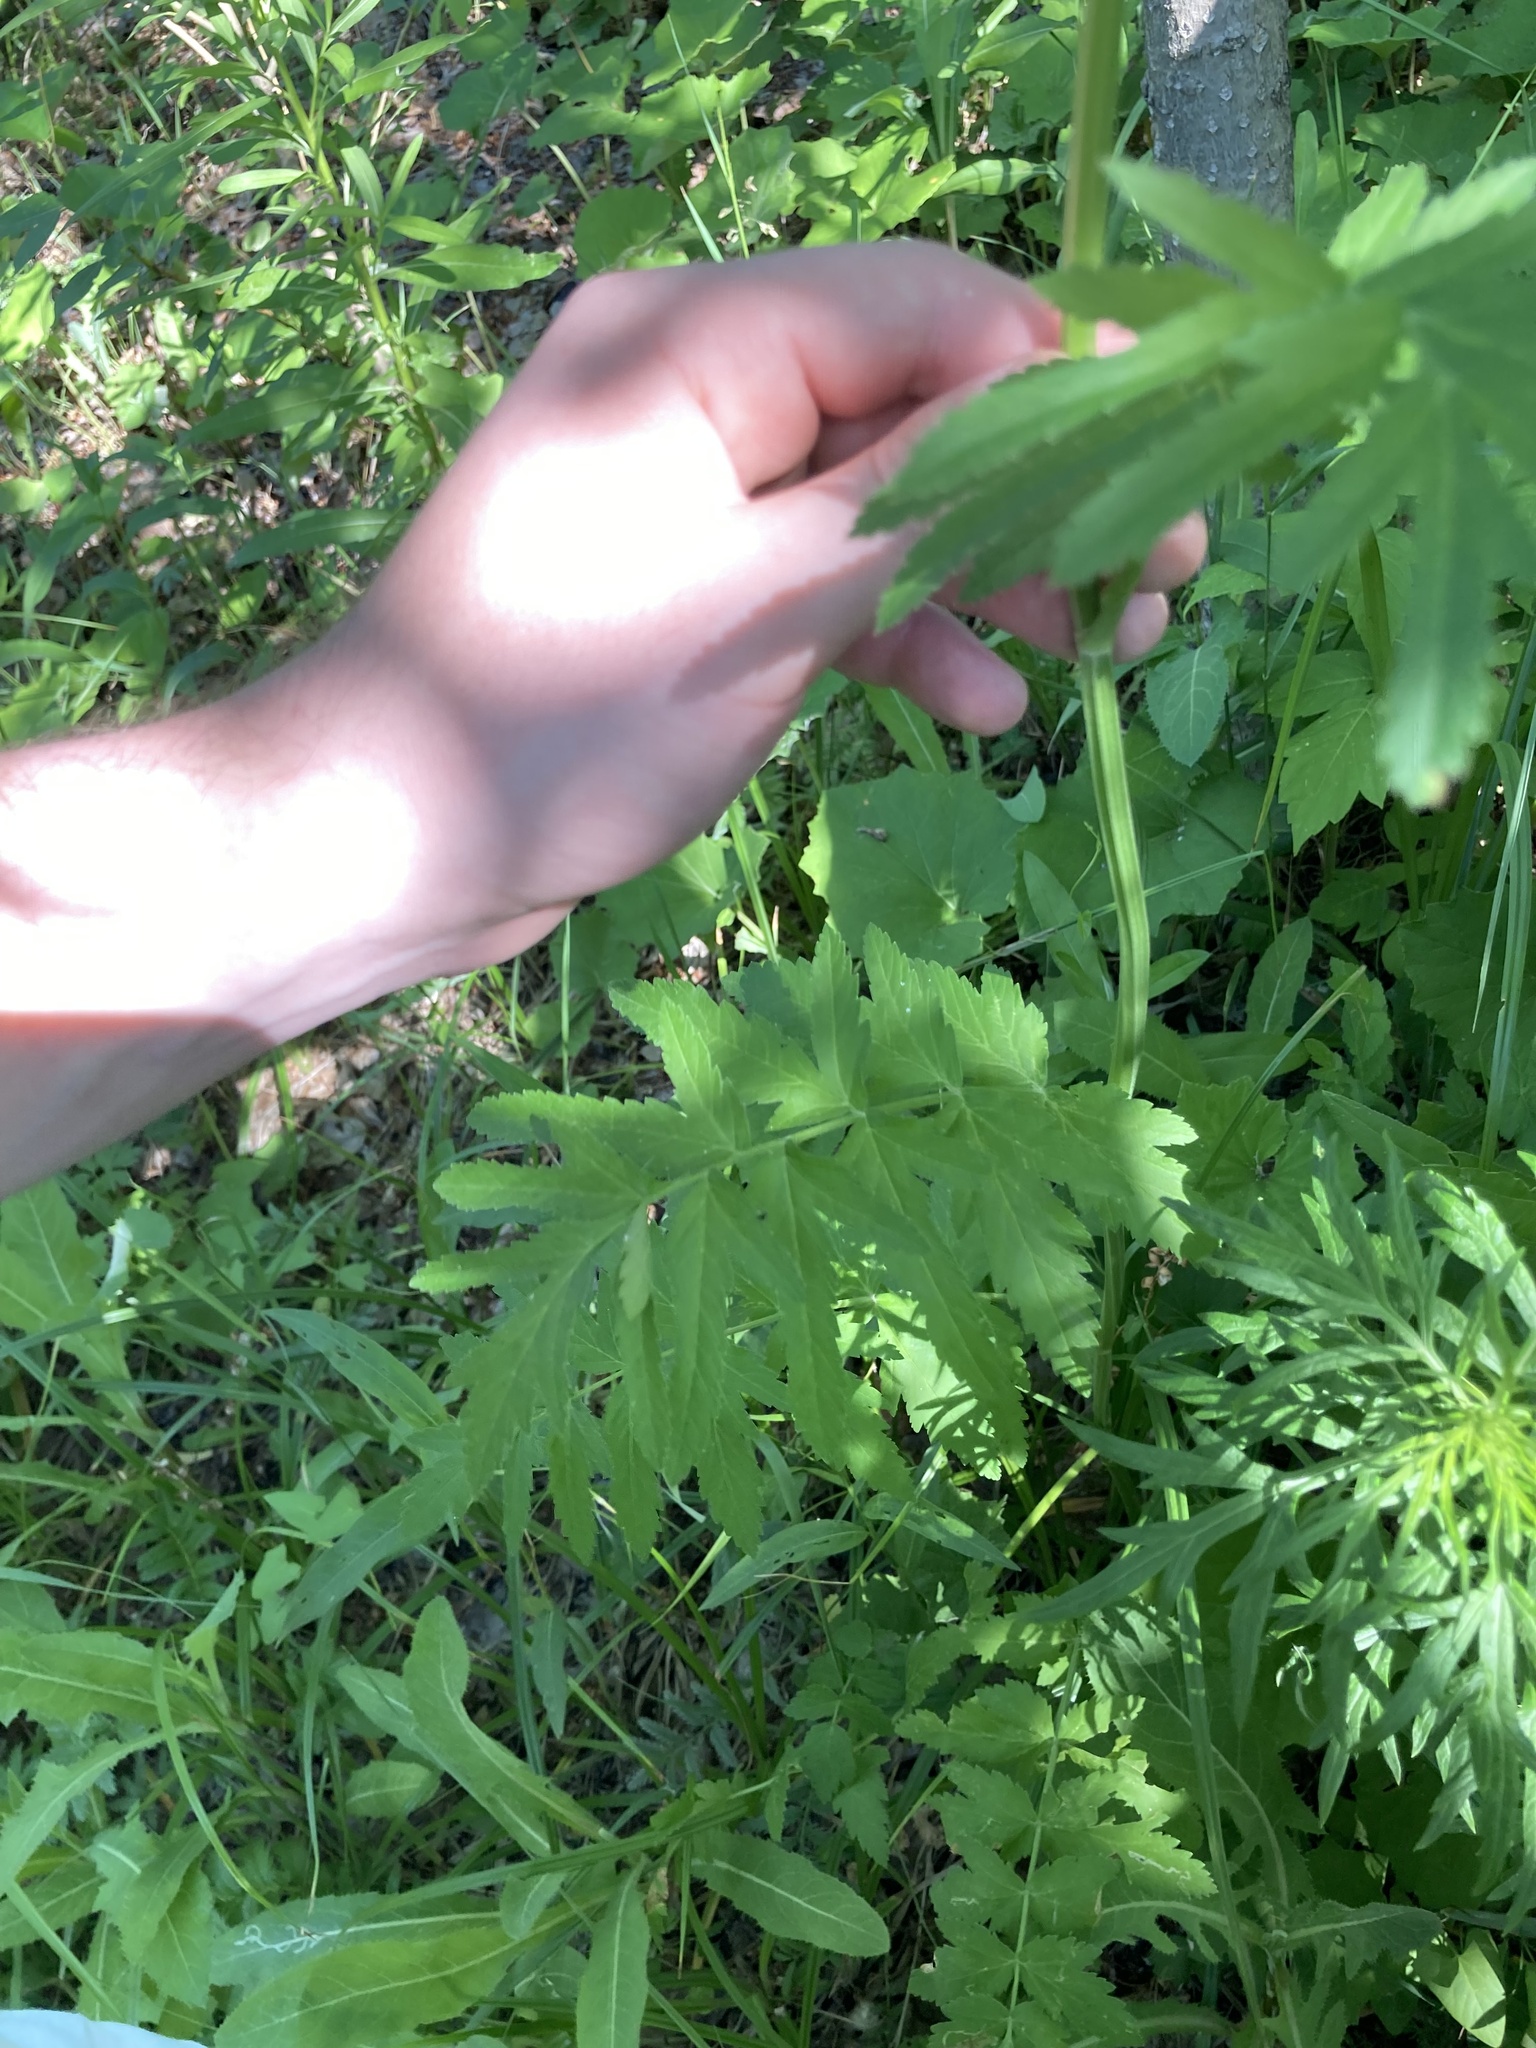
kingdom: Plantae
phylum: Tracheophyta
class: Magnoliopsida
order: Apiales
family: Apiaceae
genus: Pastinaca
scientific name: Pastinaca sativa
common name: Wild parsnip
